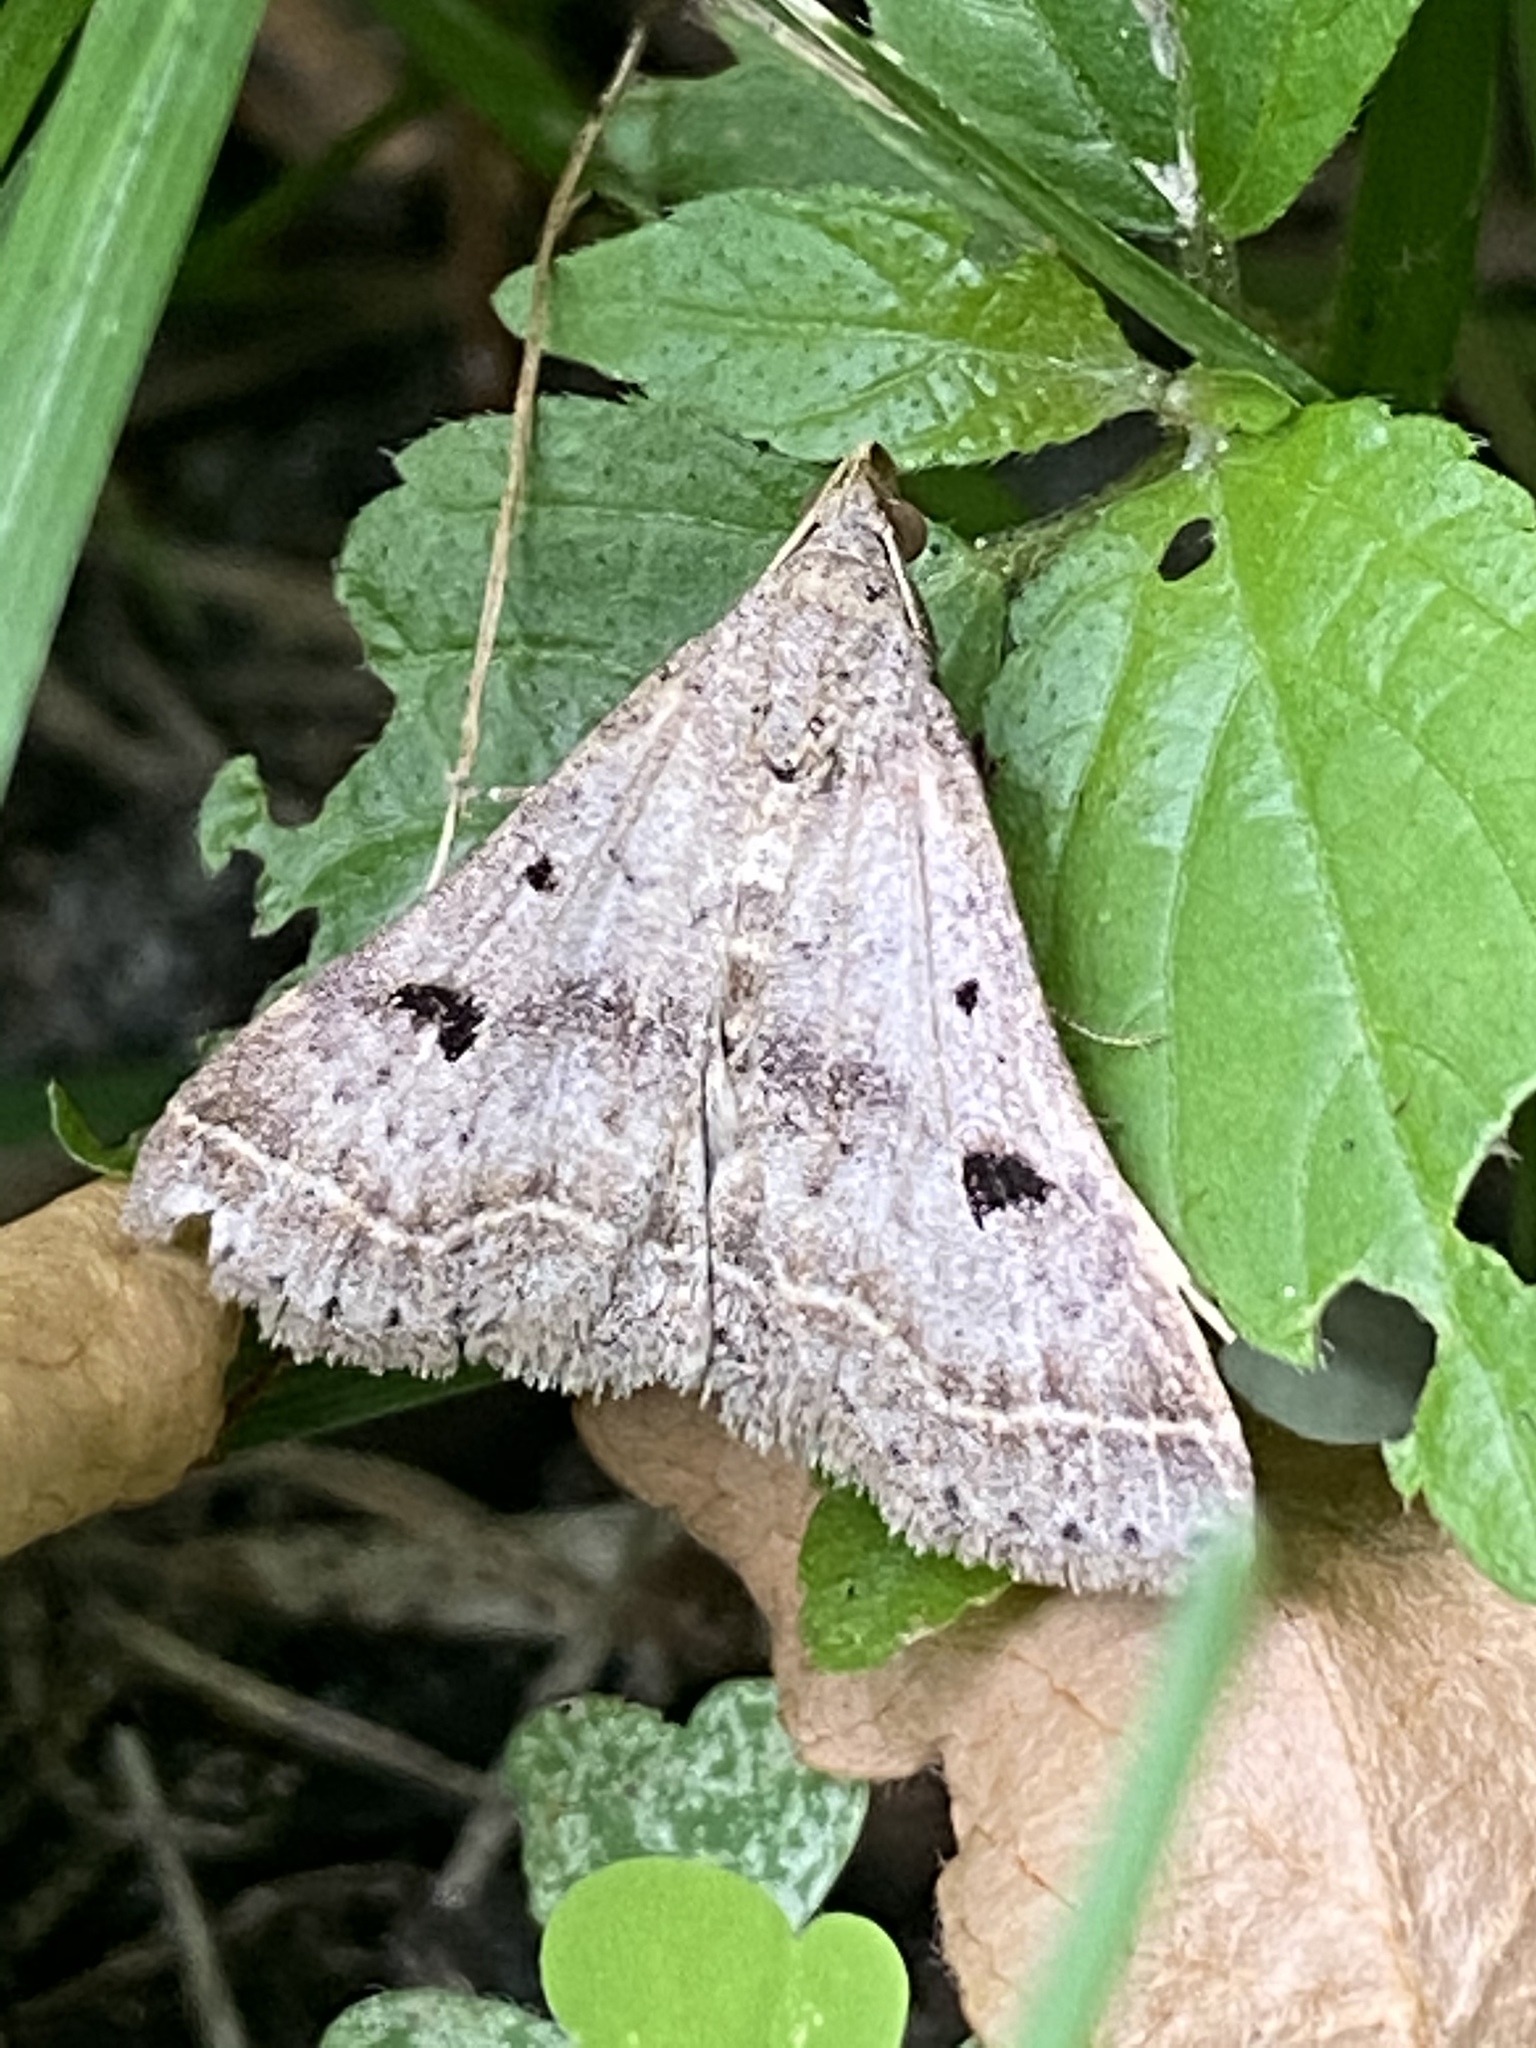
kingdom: Animalia
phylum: Arthropoda
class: Insecta
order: Lepidoptera
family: Erebidae
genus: Bleptina
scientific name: Bleptina caradrinalis
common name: Bent-winged owlet
